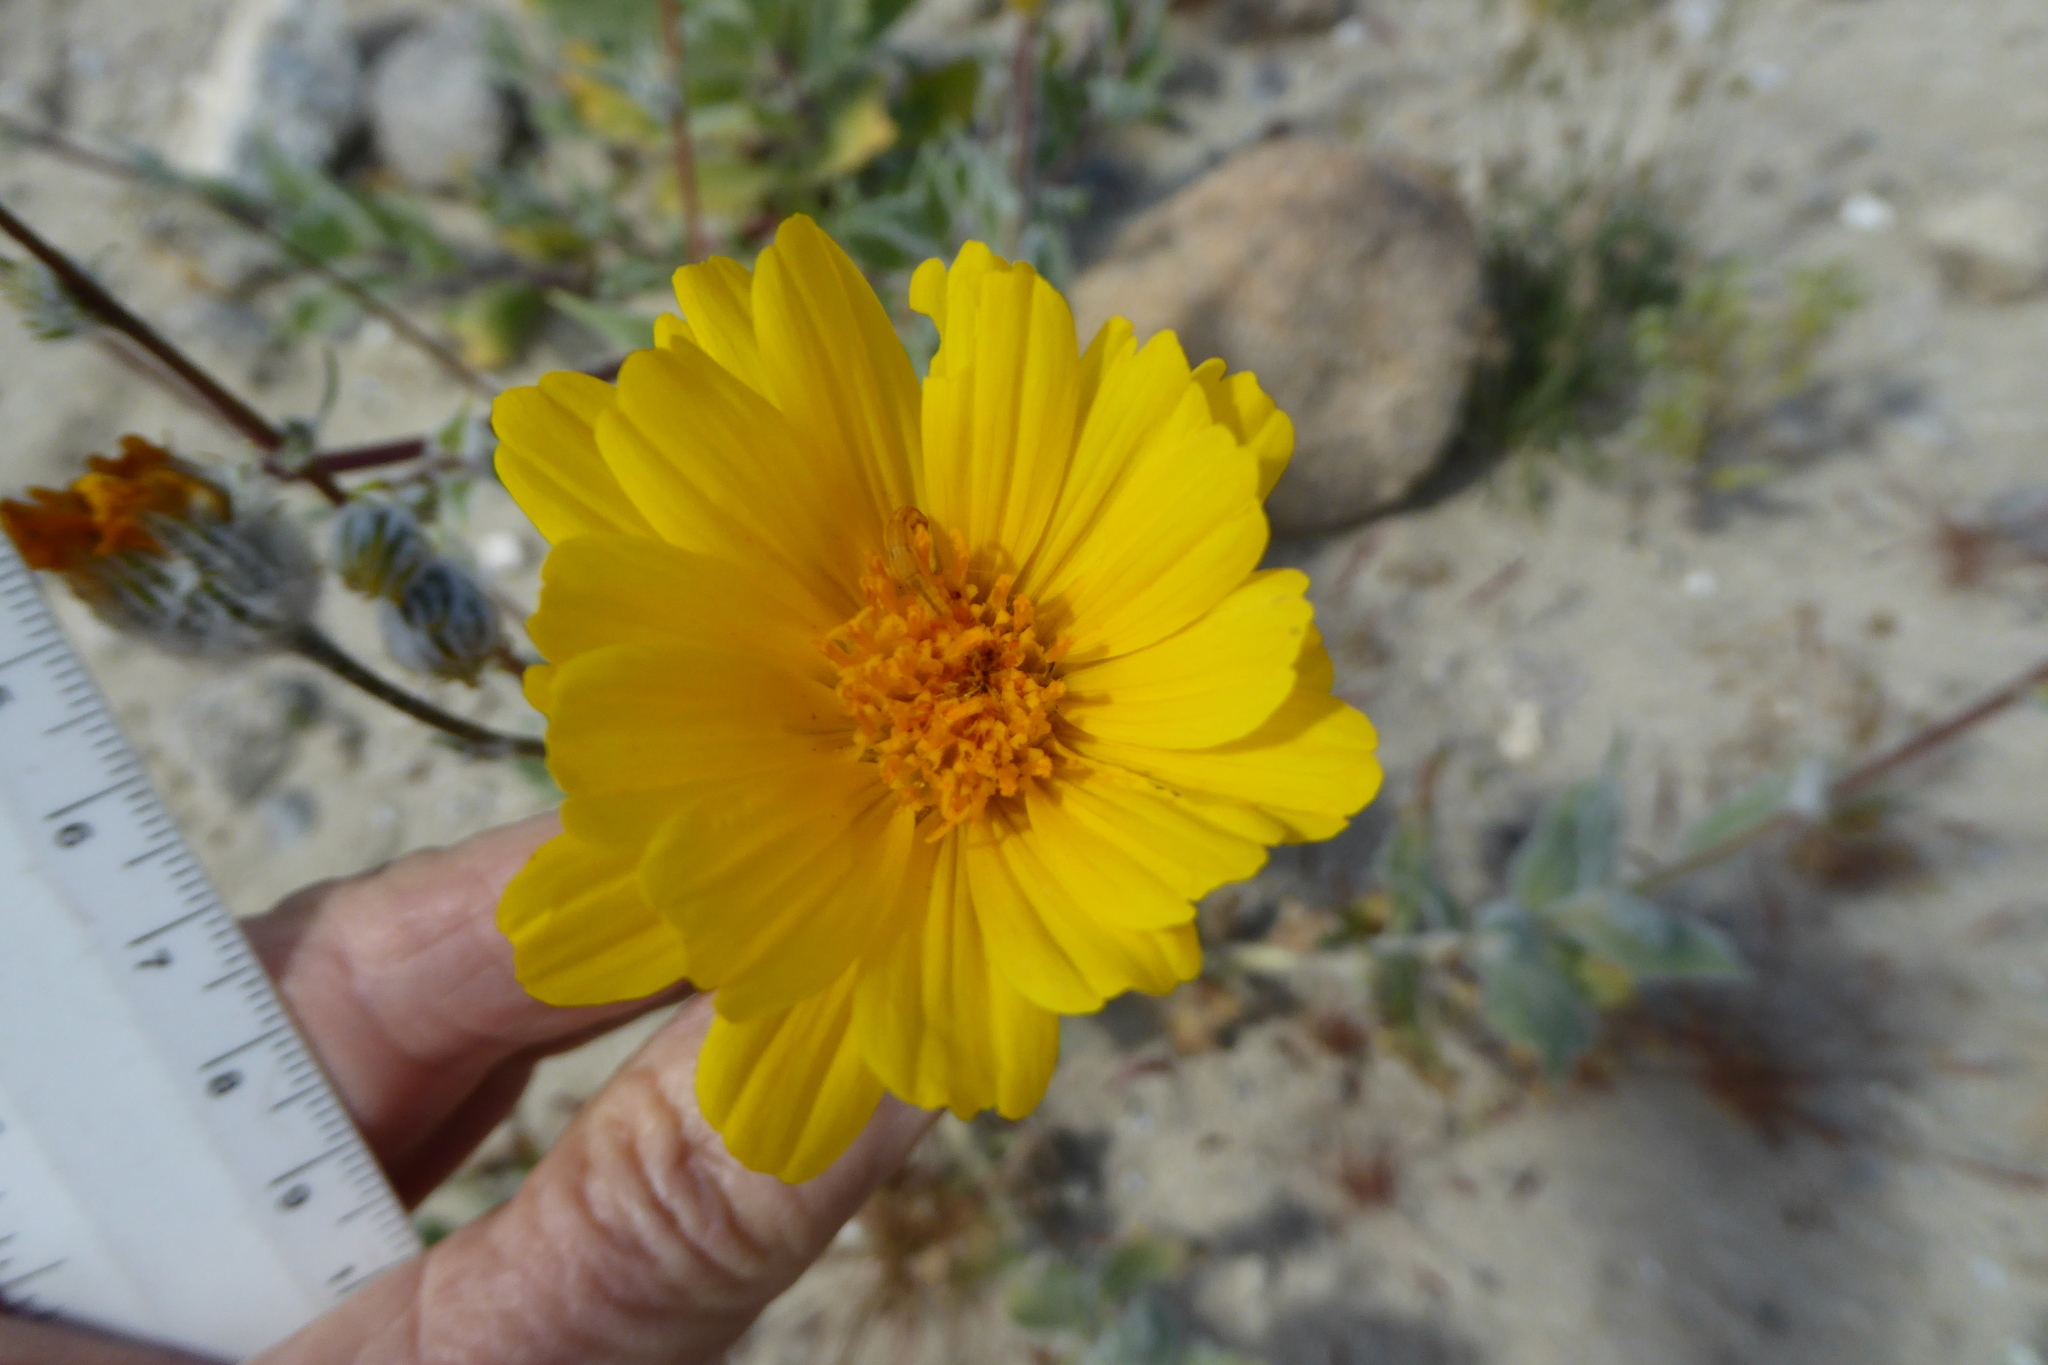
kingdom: Plantae
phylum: Tracheophyta
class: Magnoliopsida
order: Asterales
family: Asteraceae
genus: Geraea
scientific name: Geraea canescens
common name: Desert-gold
